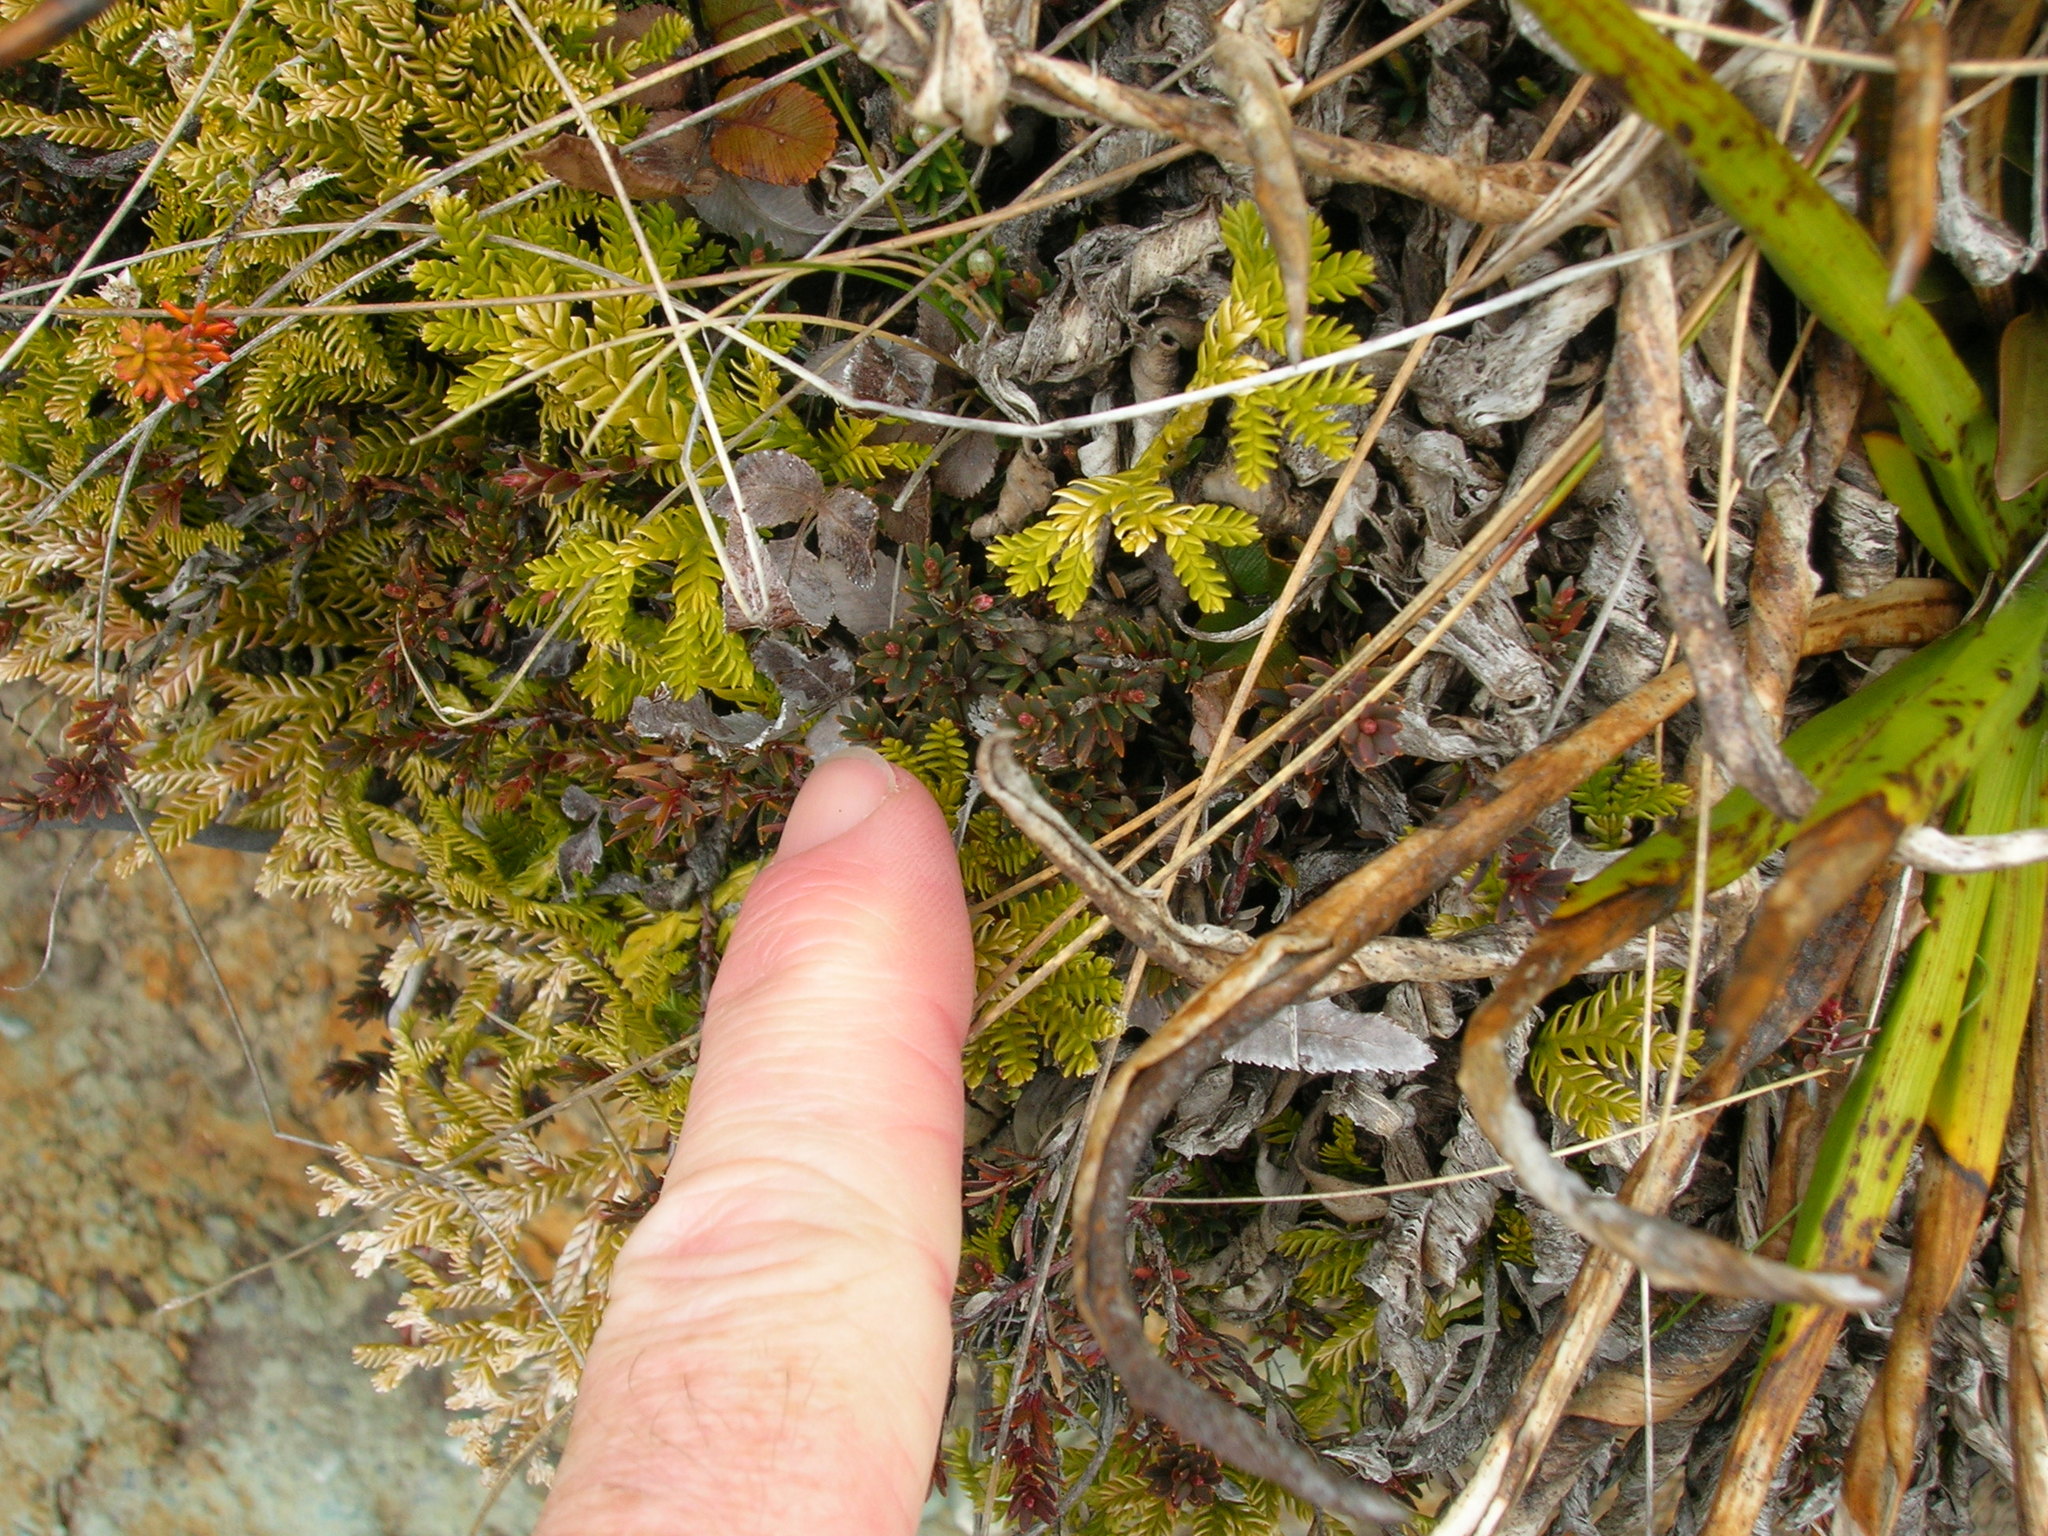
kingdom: Plantae
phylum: Tracheophyta
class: Lycopodiopsida
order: Lycopodiales
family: Lycopodiaceae
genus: Diphasium
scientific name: Diphasium scariosum
